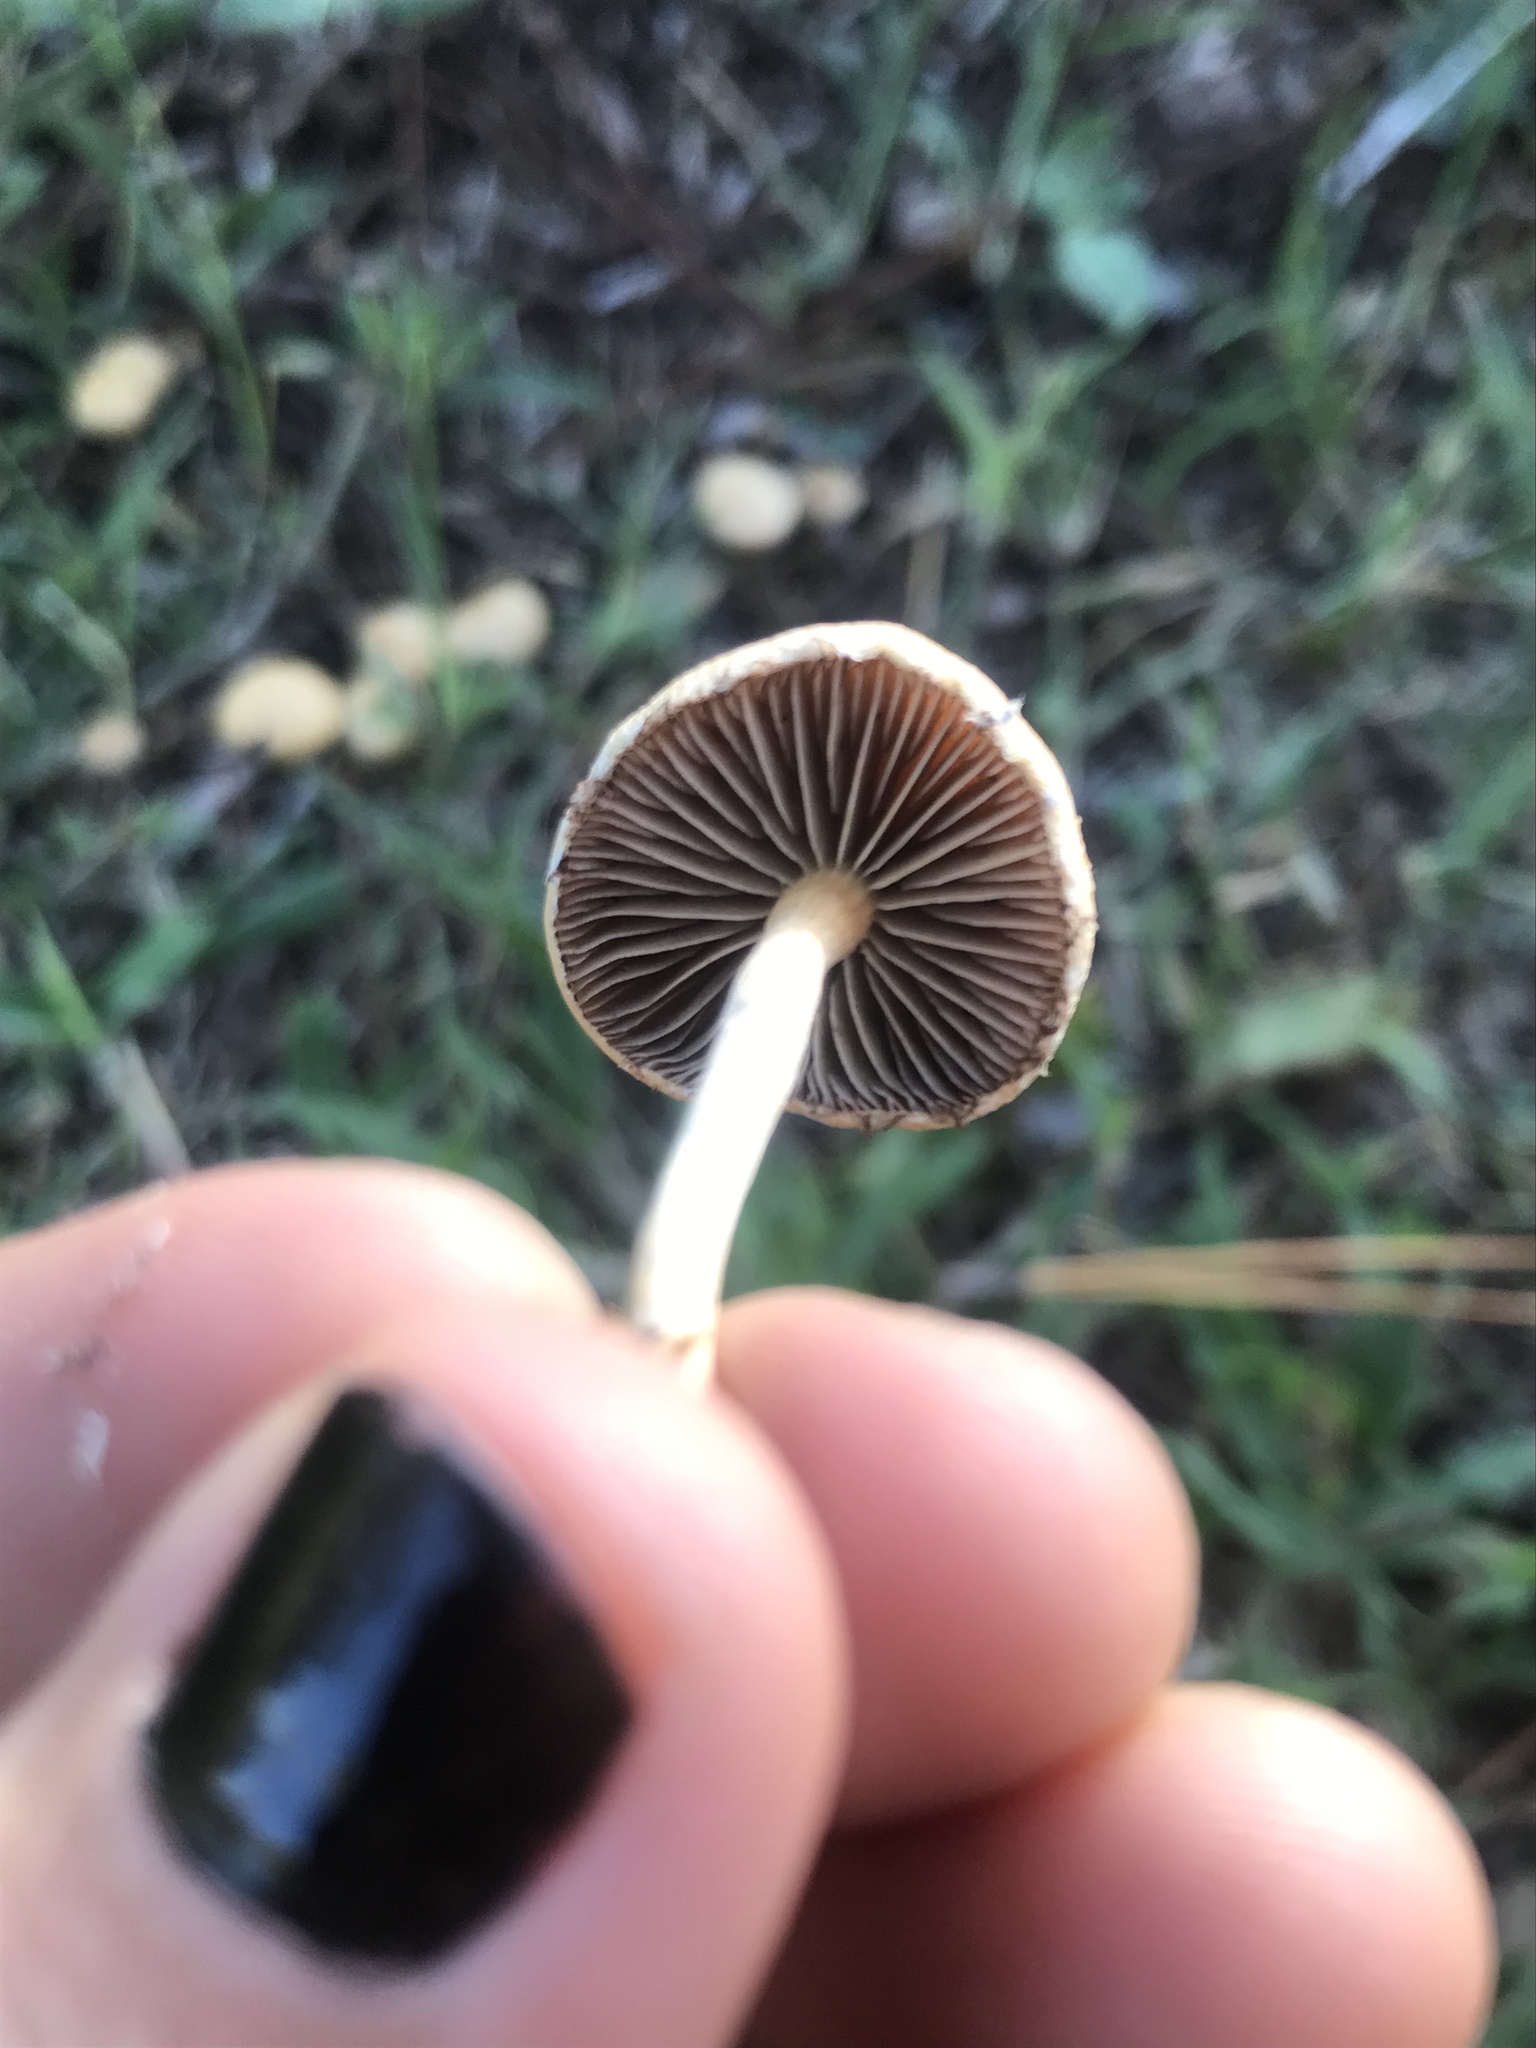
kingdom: Fungi
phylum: Basidiomycota
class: Agaricomycetes
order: Agaricales
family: Strophariaceae
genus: Agrocybe
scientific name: Agrocybe pediades
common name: Common fieldcap
